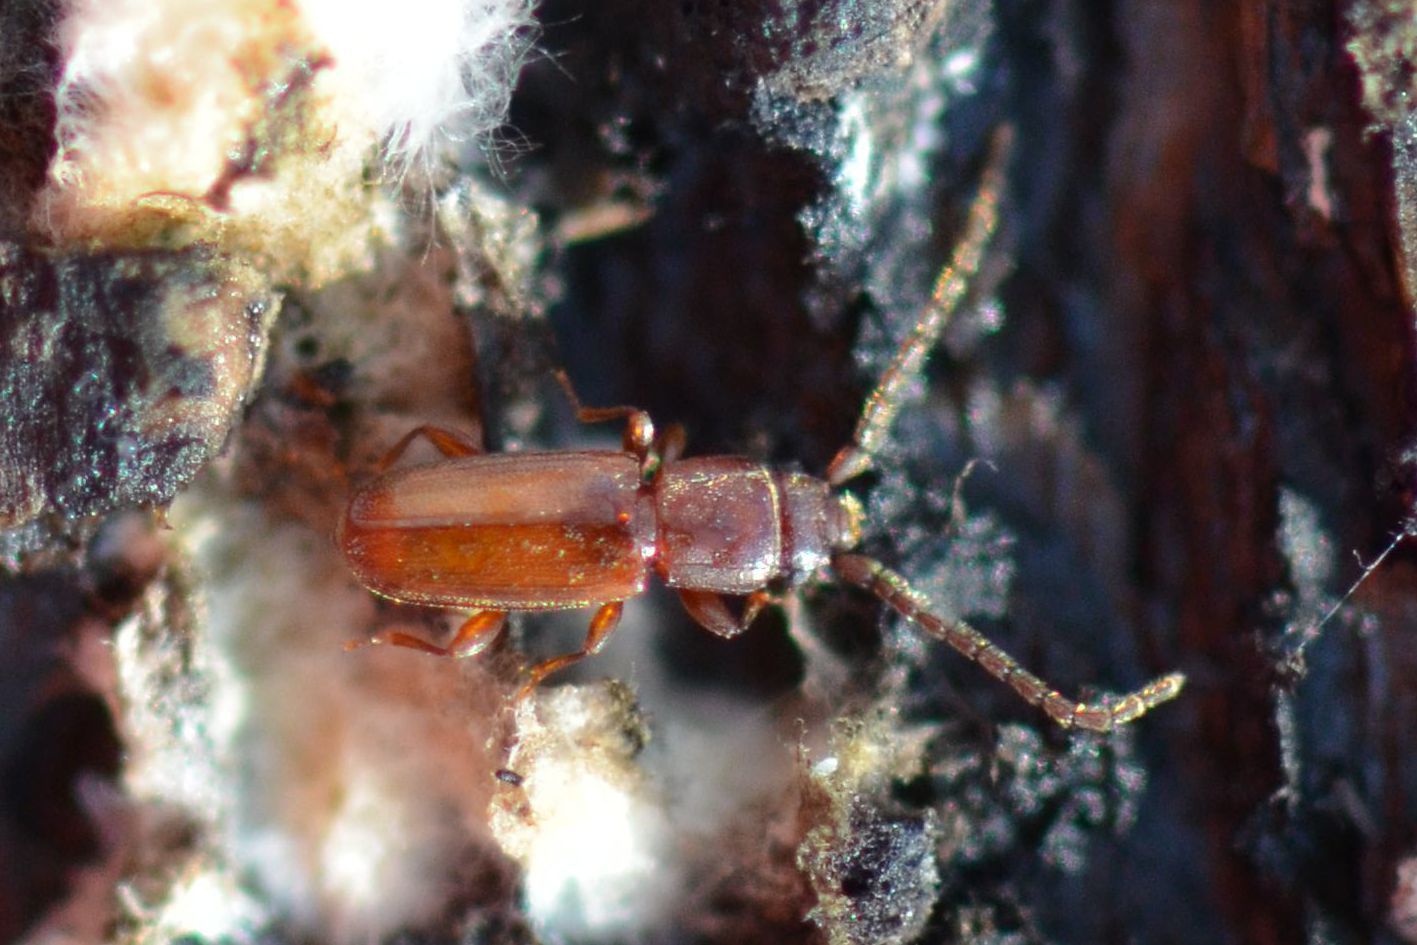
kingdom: Animalia
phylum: Arthropoda
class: Insecta
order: Coleoptera
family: Laemophloeidae
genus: Placonotus
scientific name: Placonotus testaceus
